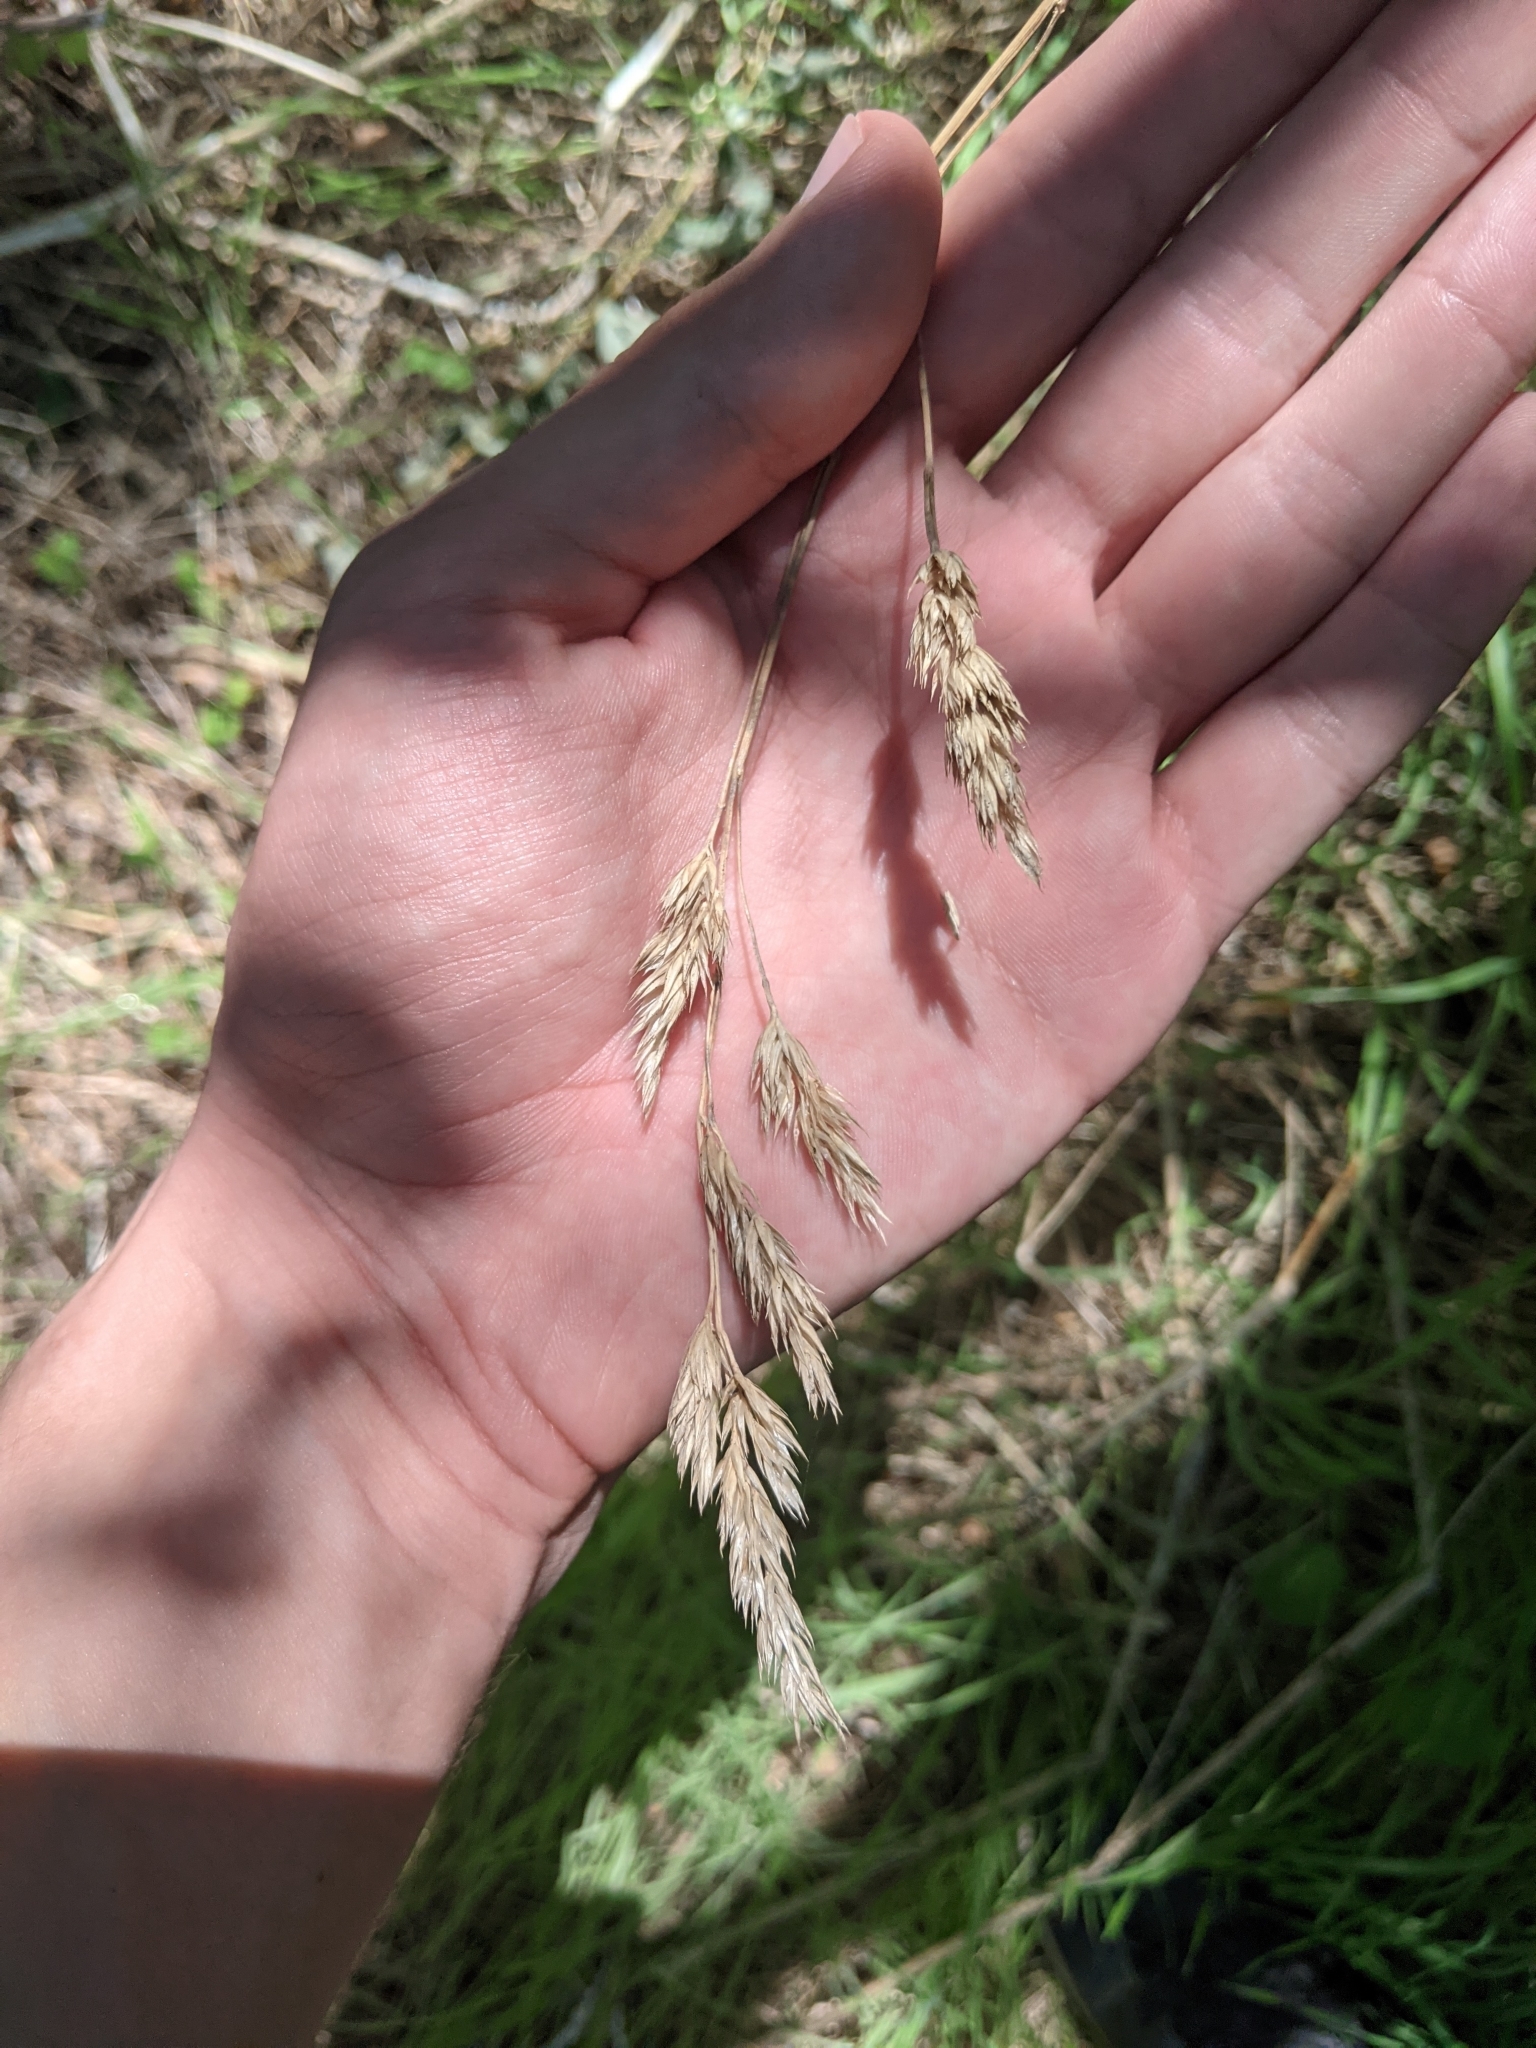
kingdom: Plantae
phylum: Tracheophyta
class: Liliopsida
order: Poales
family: Poaceae
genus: Dactylis
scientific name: Dactylis glomerata
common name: Orchardgrass
